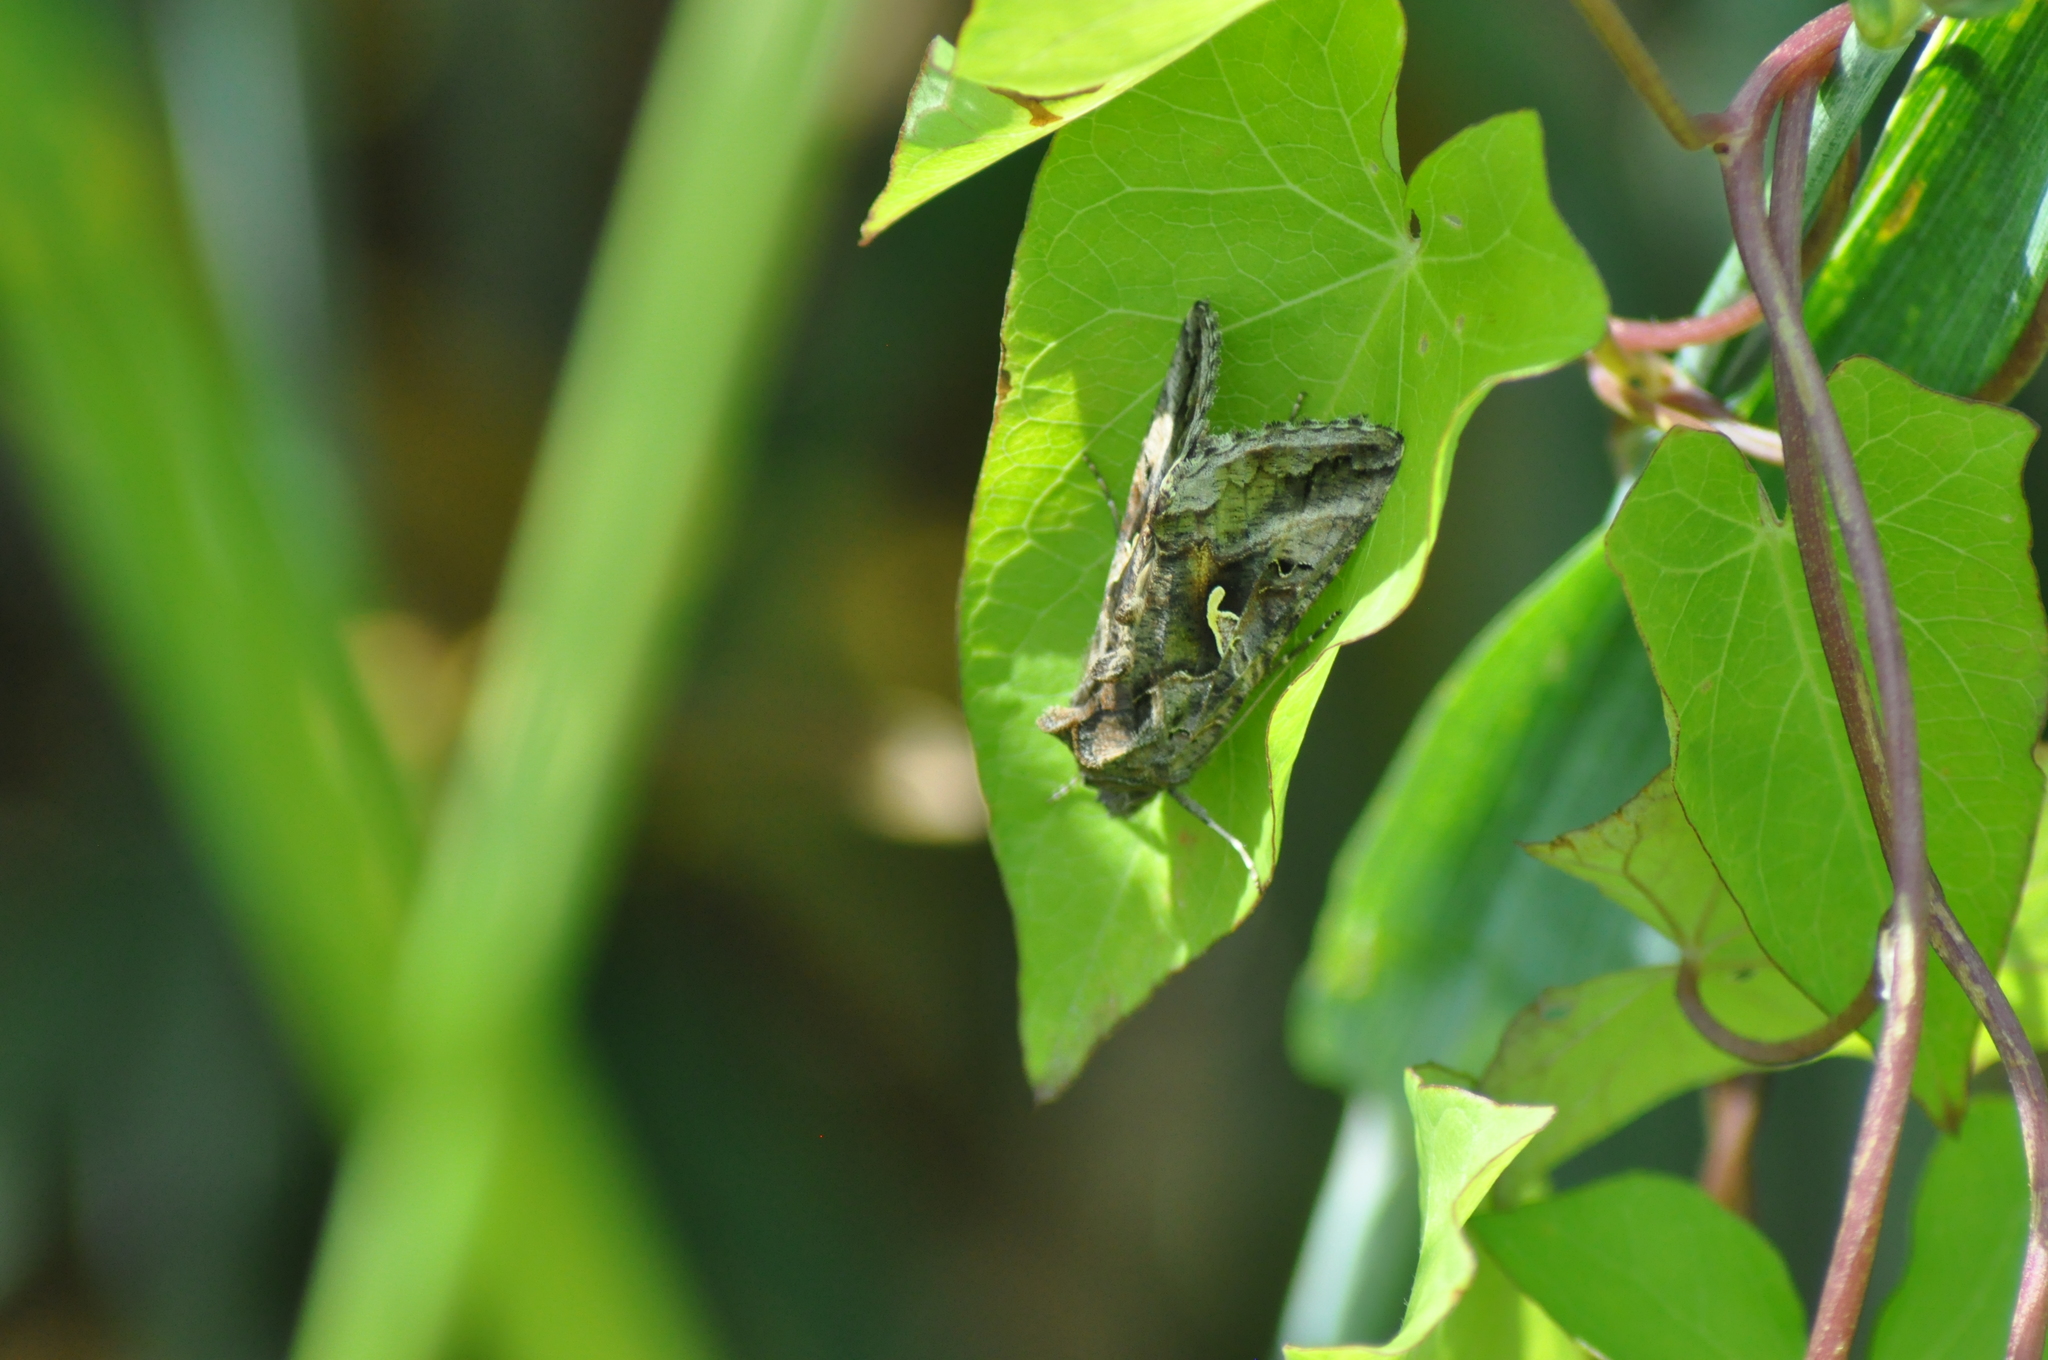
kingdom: Animalia
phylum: Arthropoda
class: Insecta
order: Lepidoptera
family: Noctuidae
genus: Autographa
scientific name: Autographa gamma
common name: Silver y
